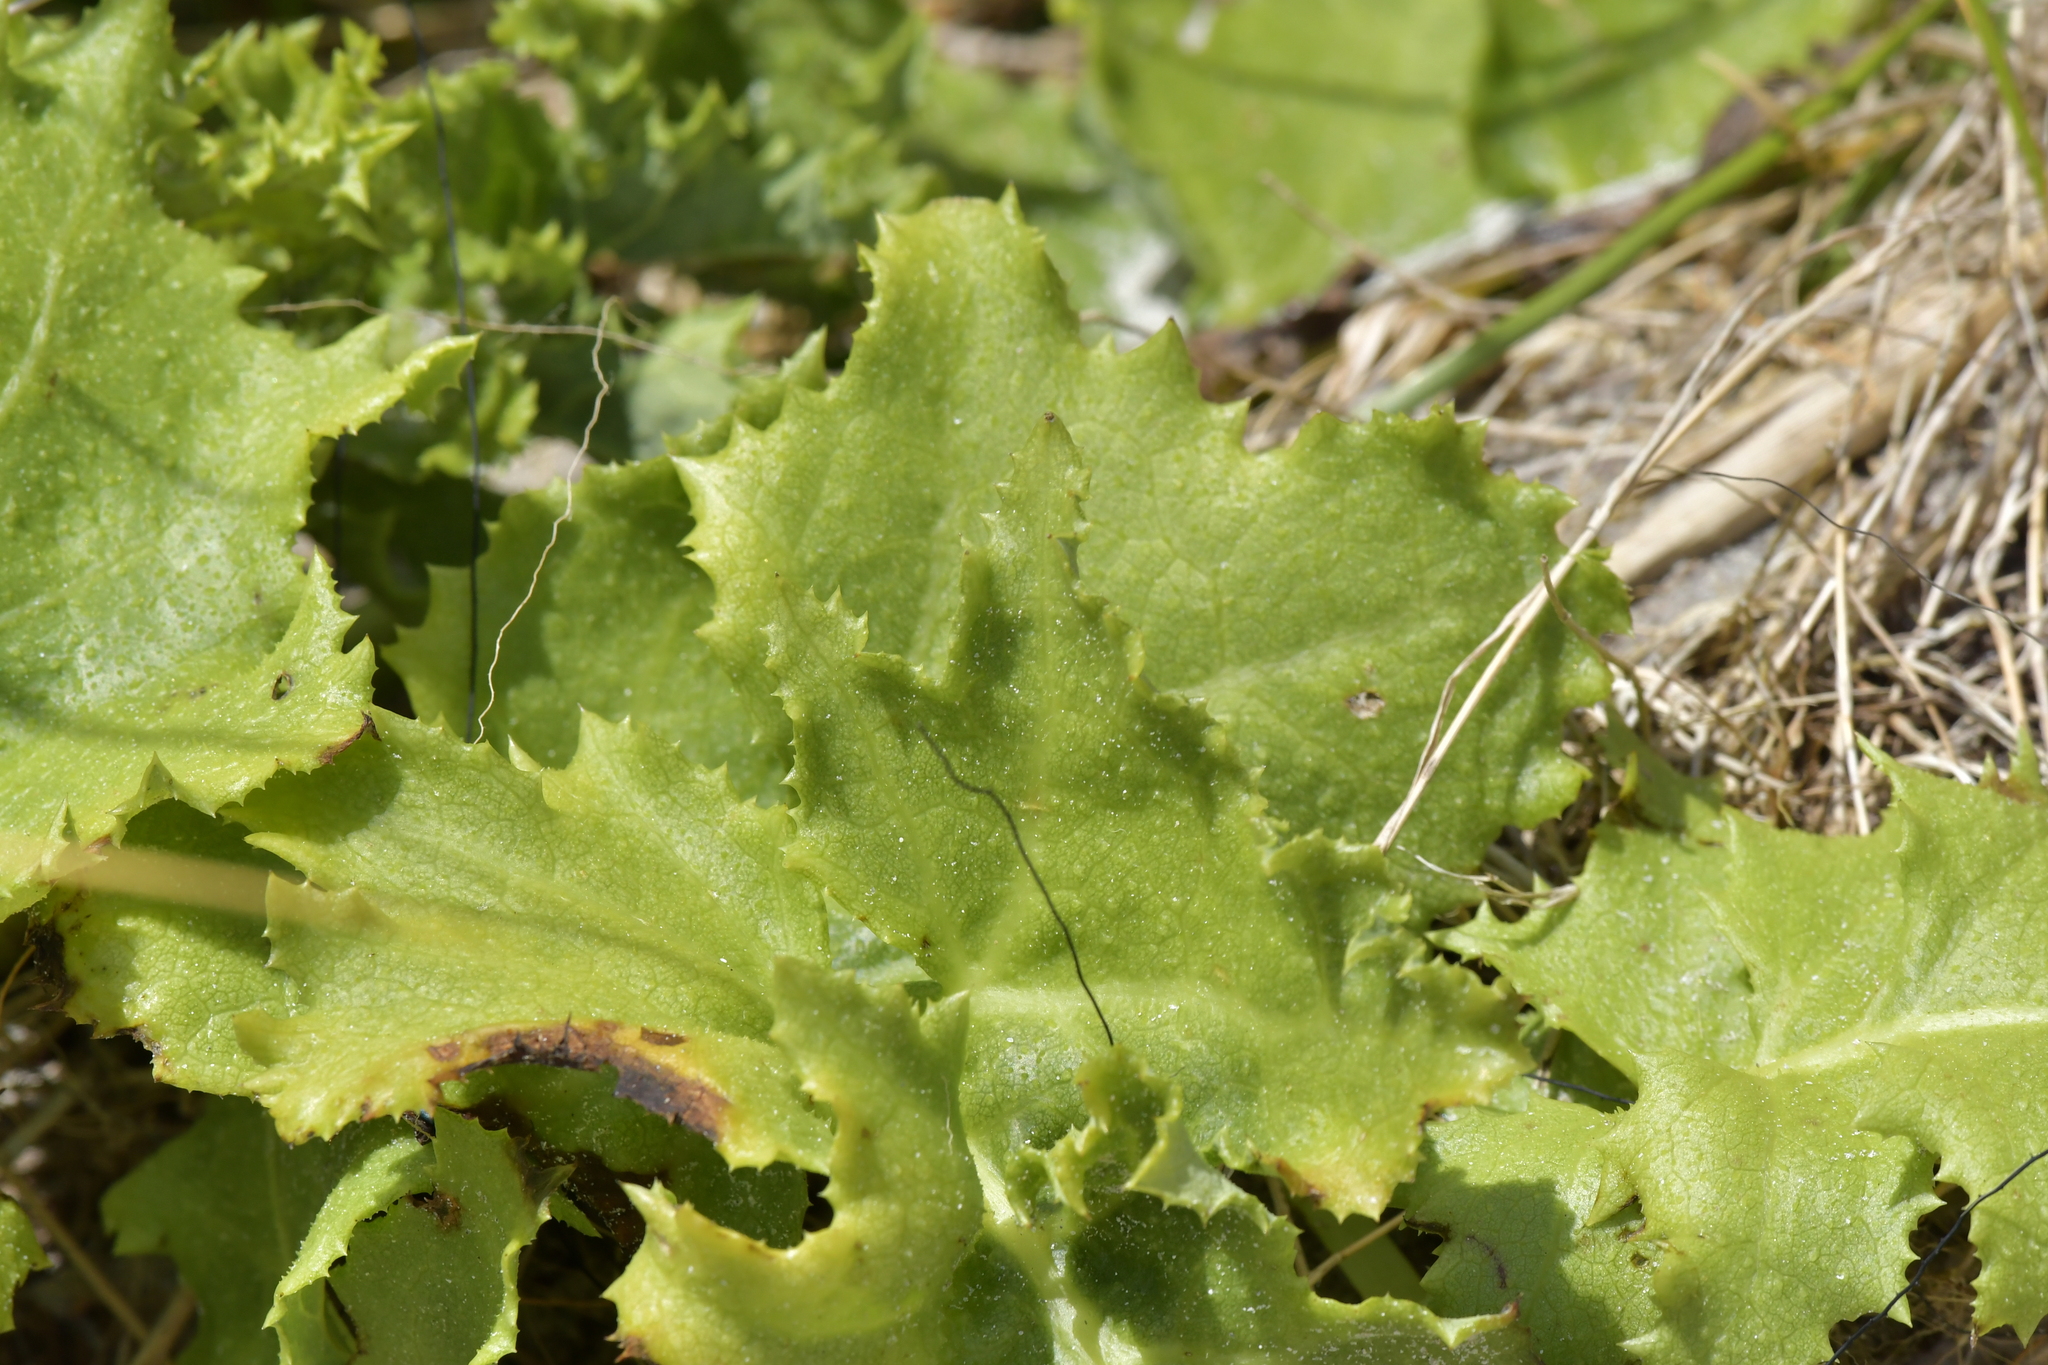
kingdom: Plantae
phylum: Tracheophyta
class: Magnoliopsida
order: Asterales
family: Asteraceae
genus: Sonchus
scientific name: Sonchus grandifolius
